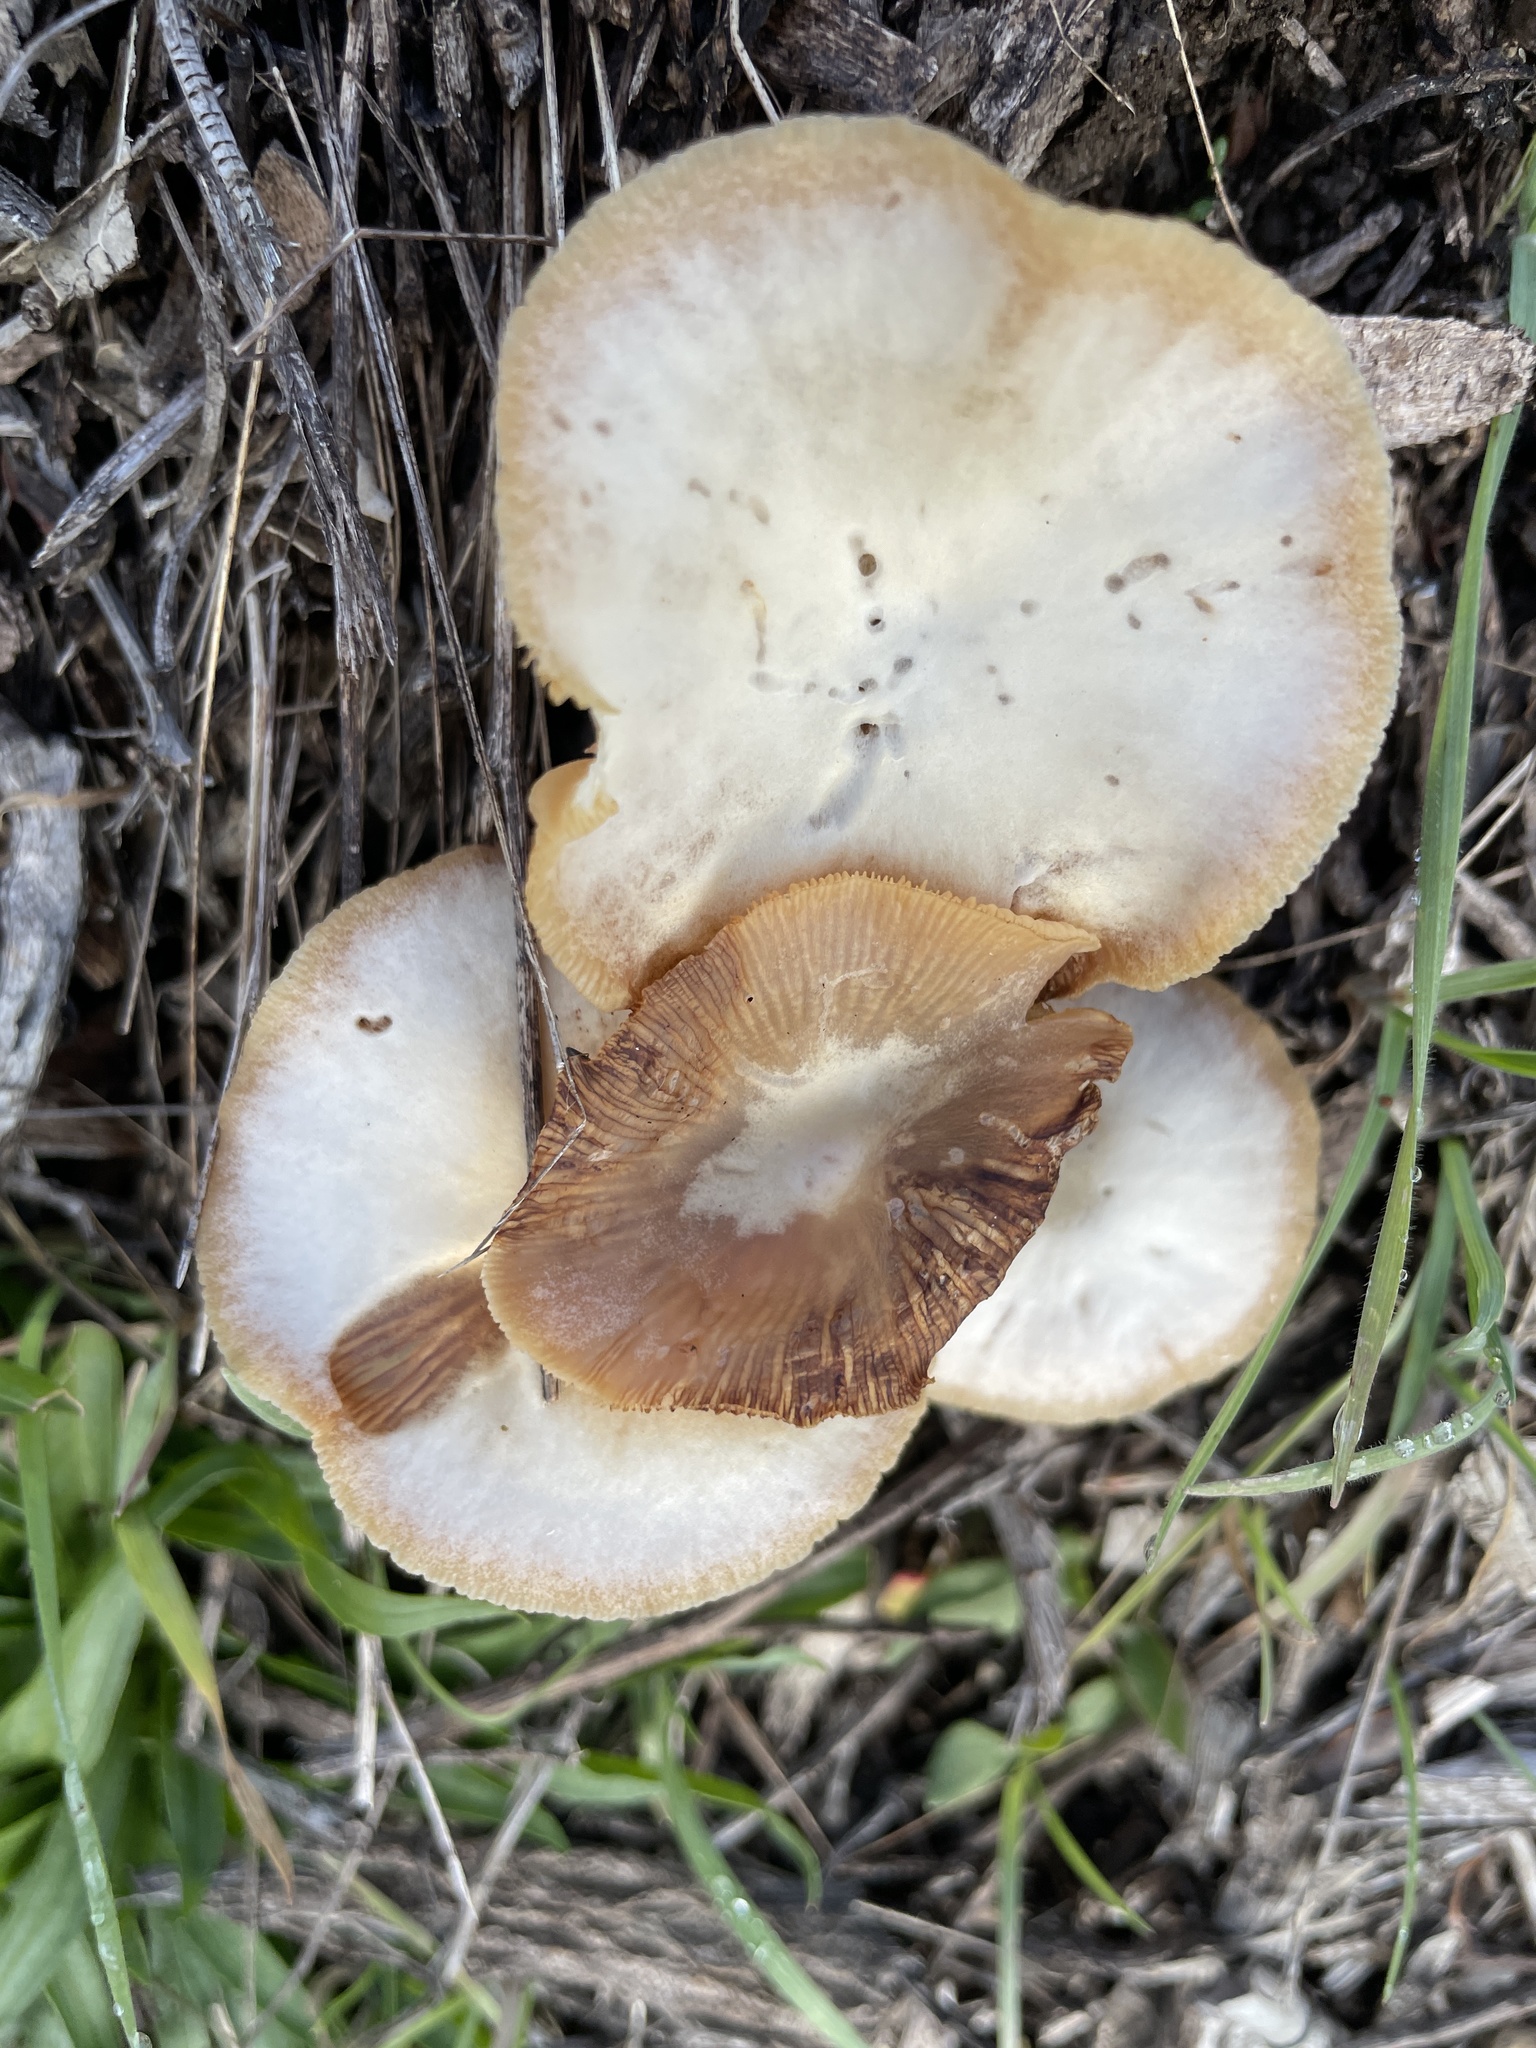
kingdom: Fungi
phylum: Basidiomycota
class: Agaricomycetes
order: Agaricales
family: Tubariaceae
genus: Tubaria
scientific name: Tubaria furfuracea
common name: Scurfy twiglet
